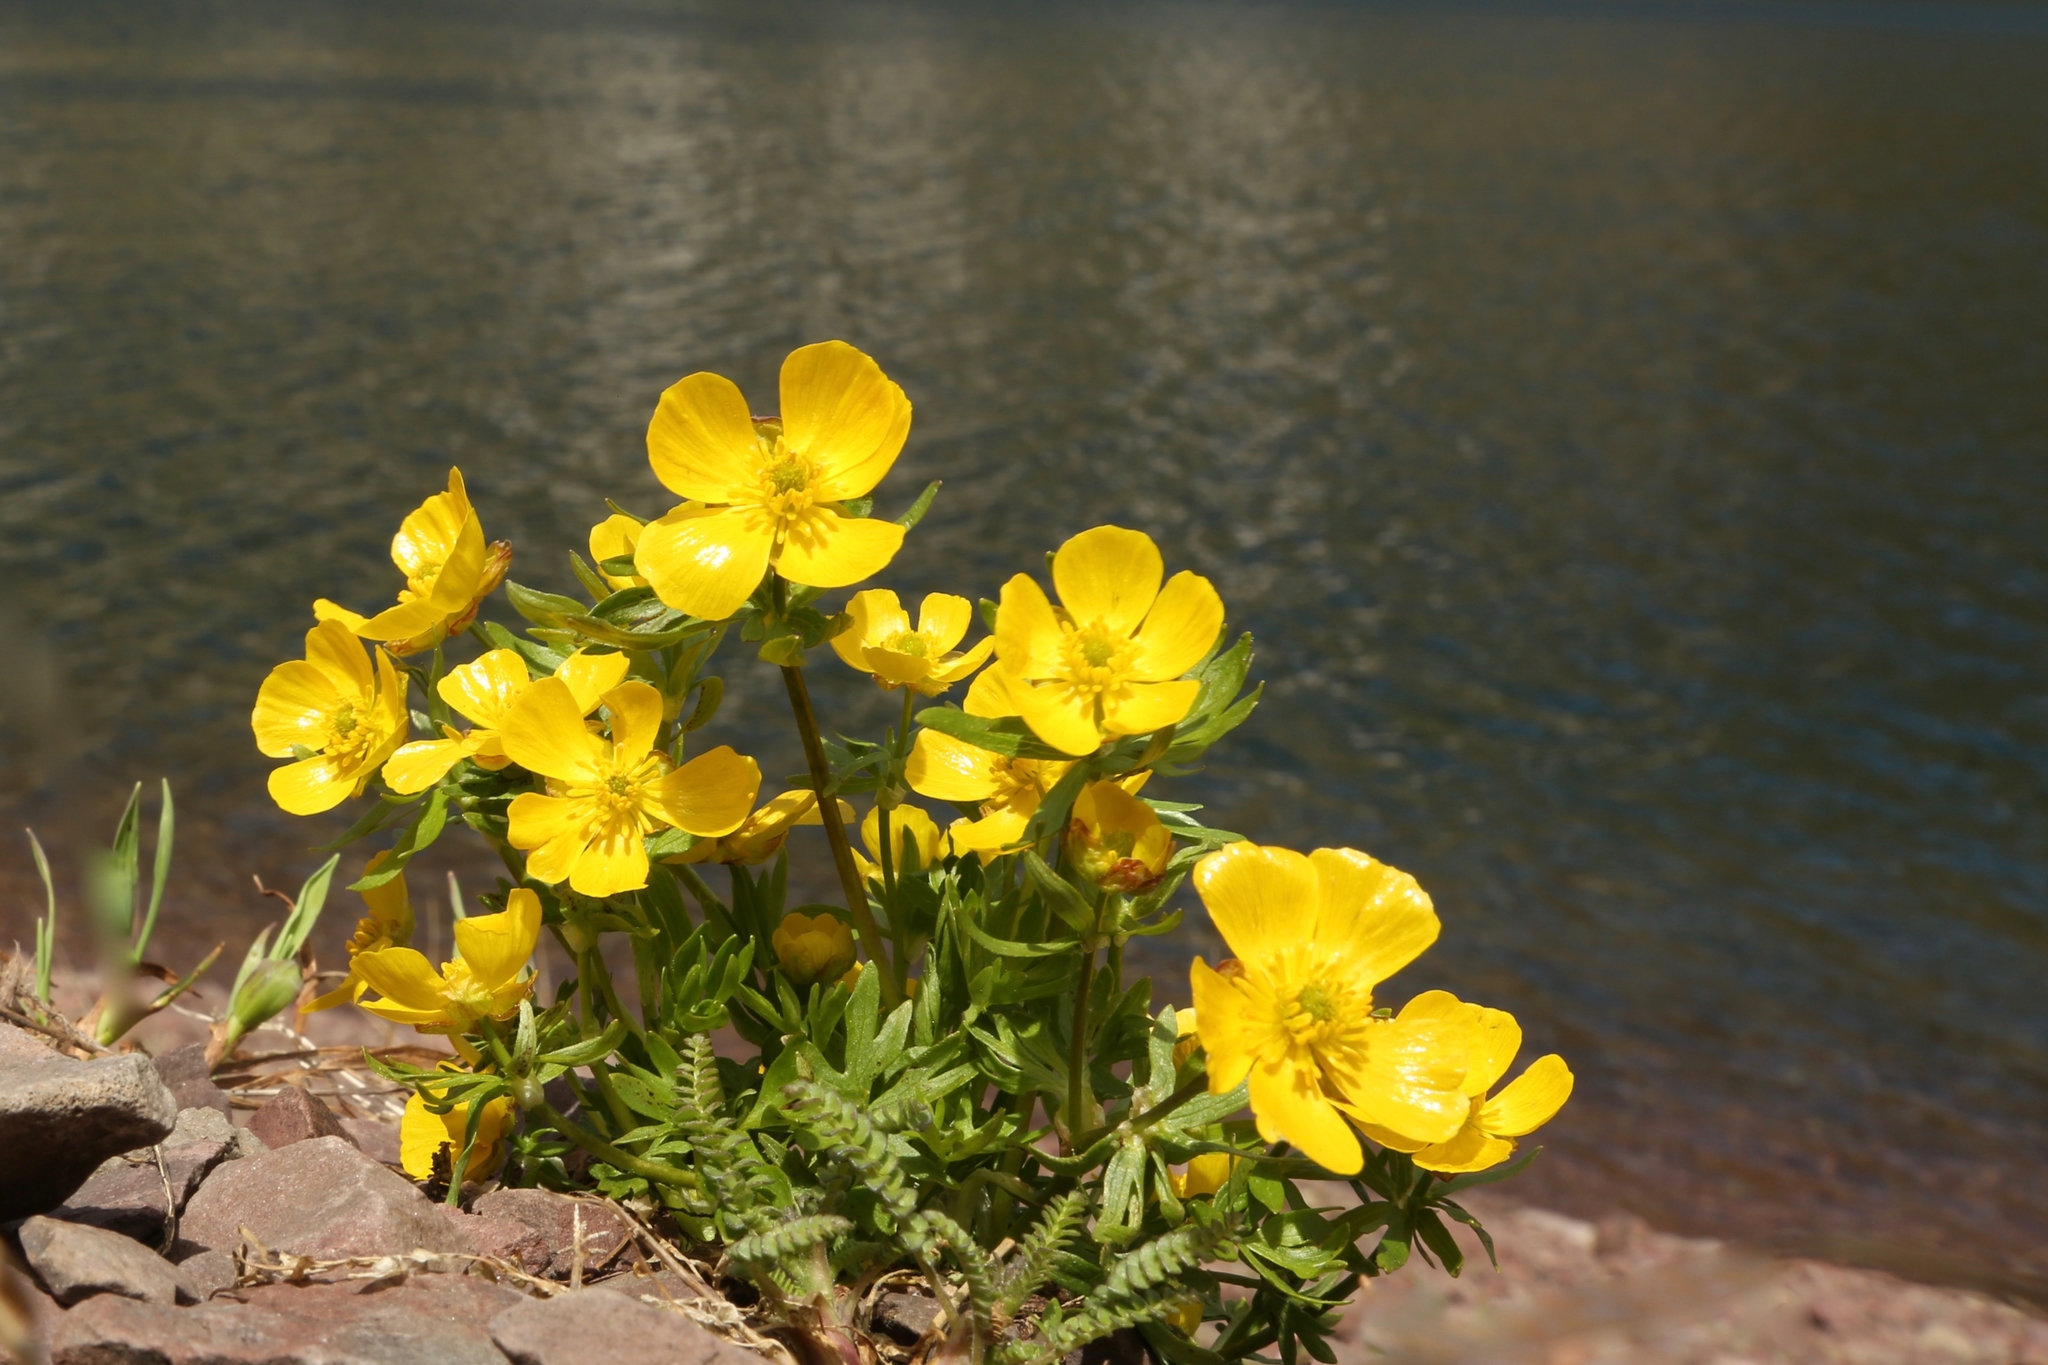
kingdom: Plantae
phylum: Tracheophyta
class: Magnoliopsida
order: Ranunculales
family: Ranunculaceae
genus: Ranunculus
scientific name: Ranunculus eschscholtzii
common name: Eschscholtz's buttercup
